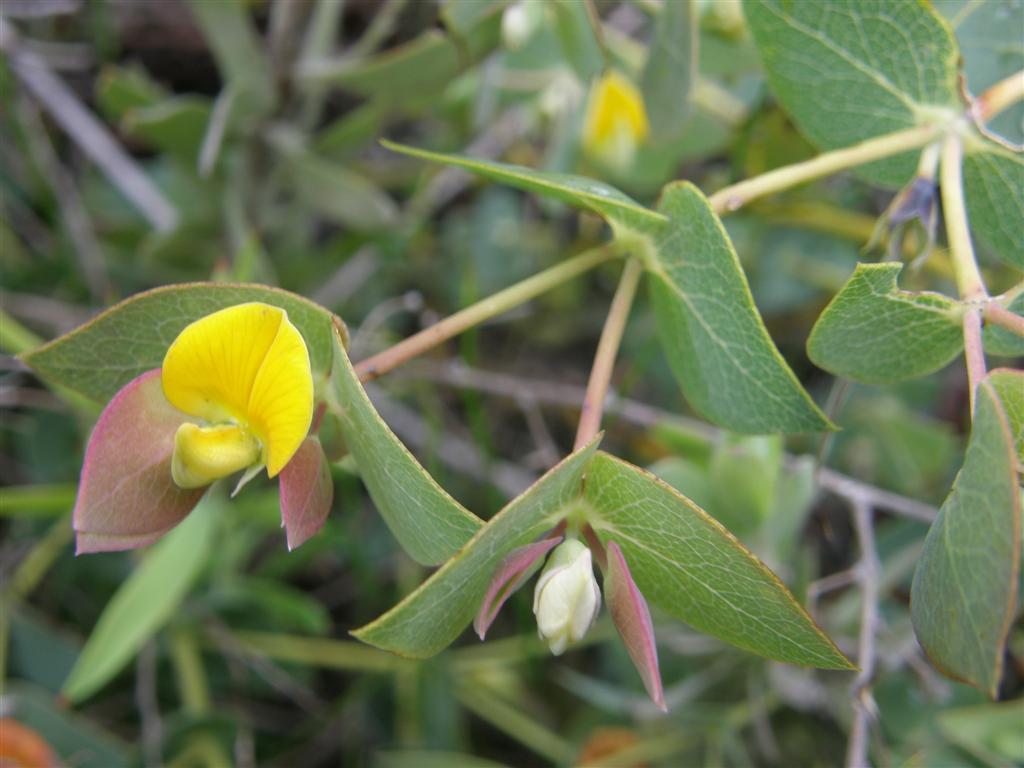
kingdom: Plantae
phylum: Tracheophyta
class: Magnoliopsida
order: Fabales
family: Fabaceae
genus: Rafnia
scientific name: Rafnia acuminata
